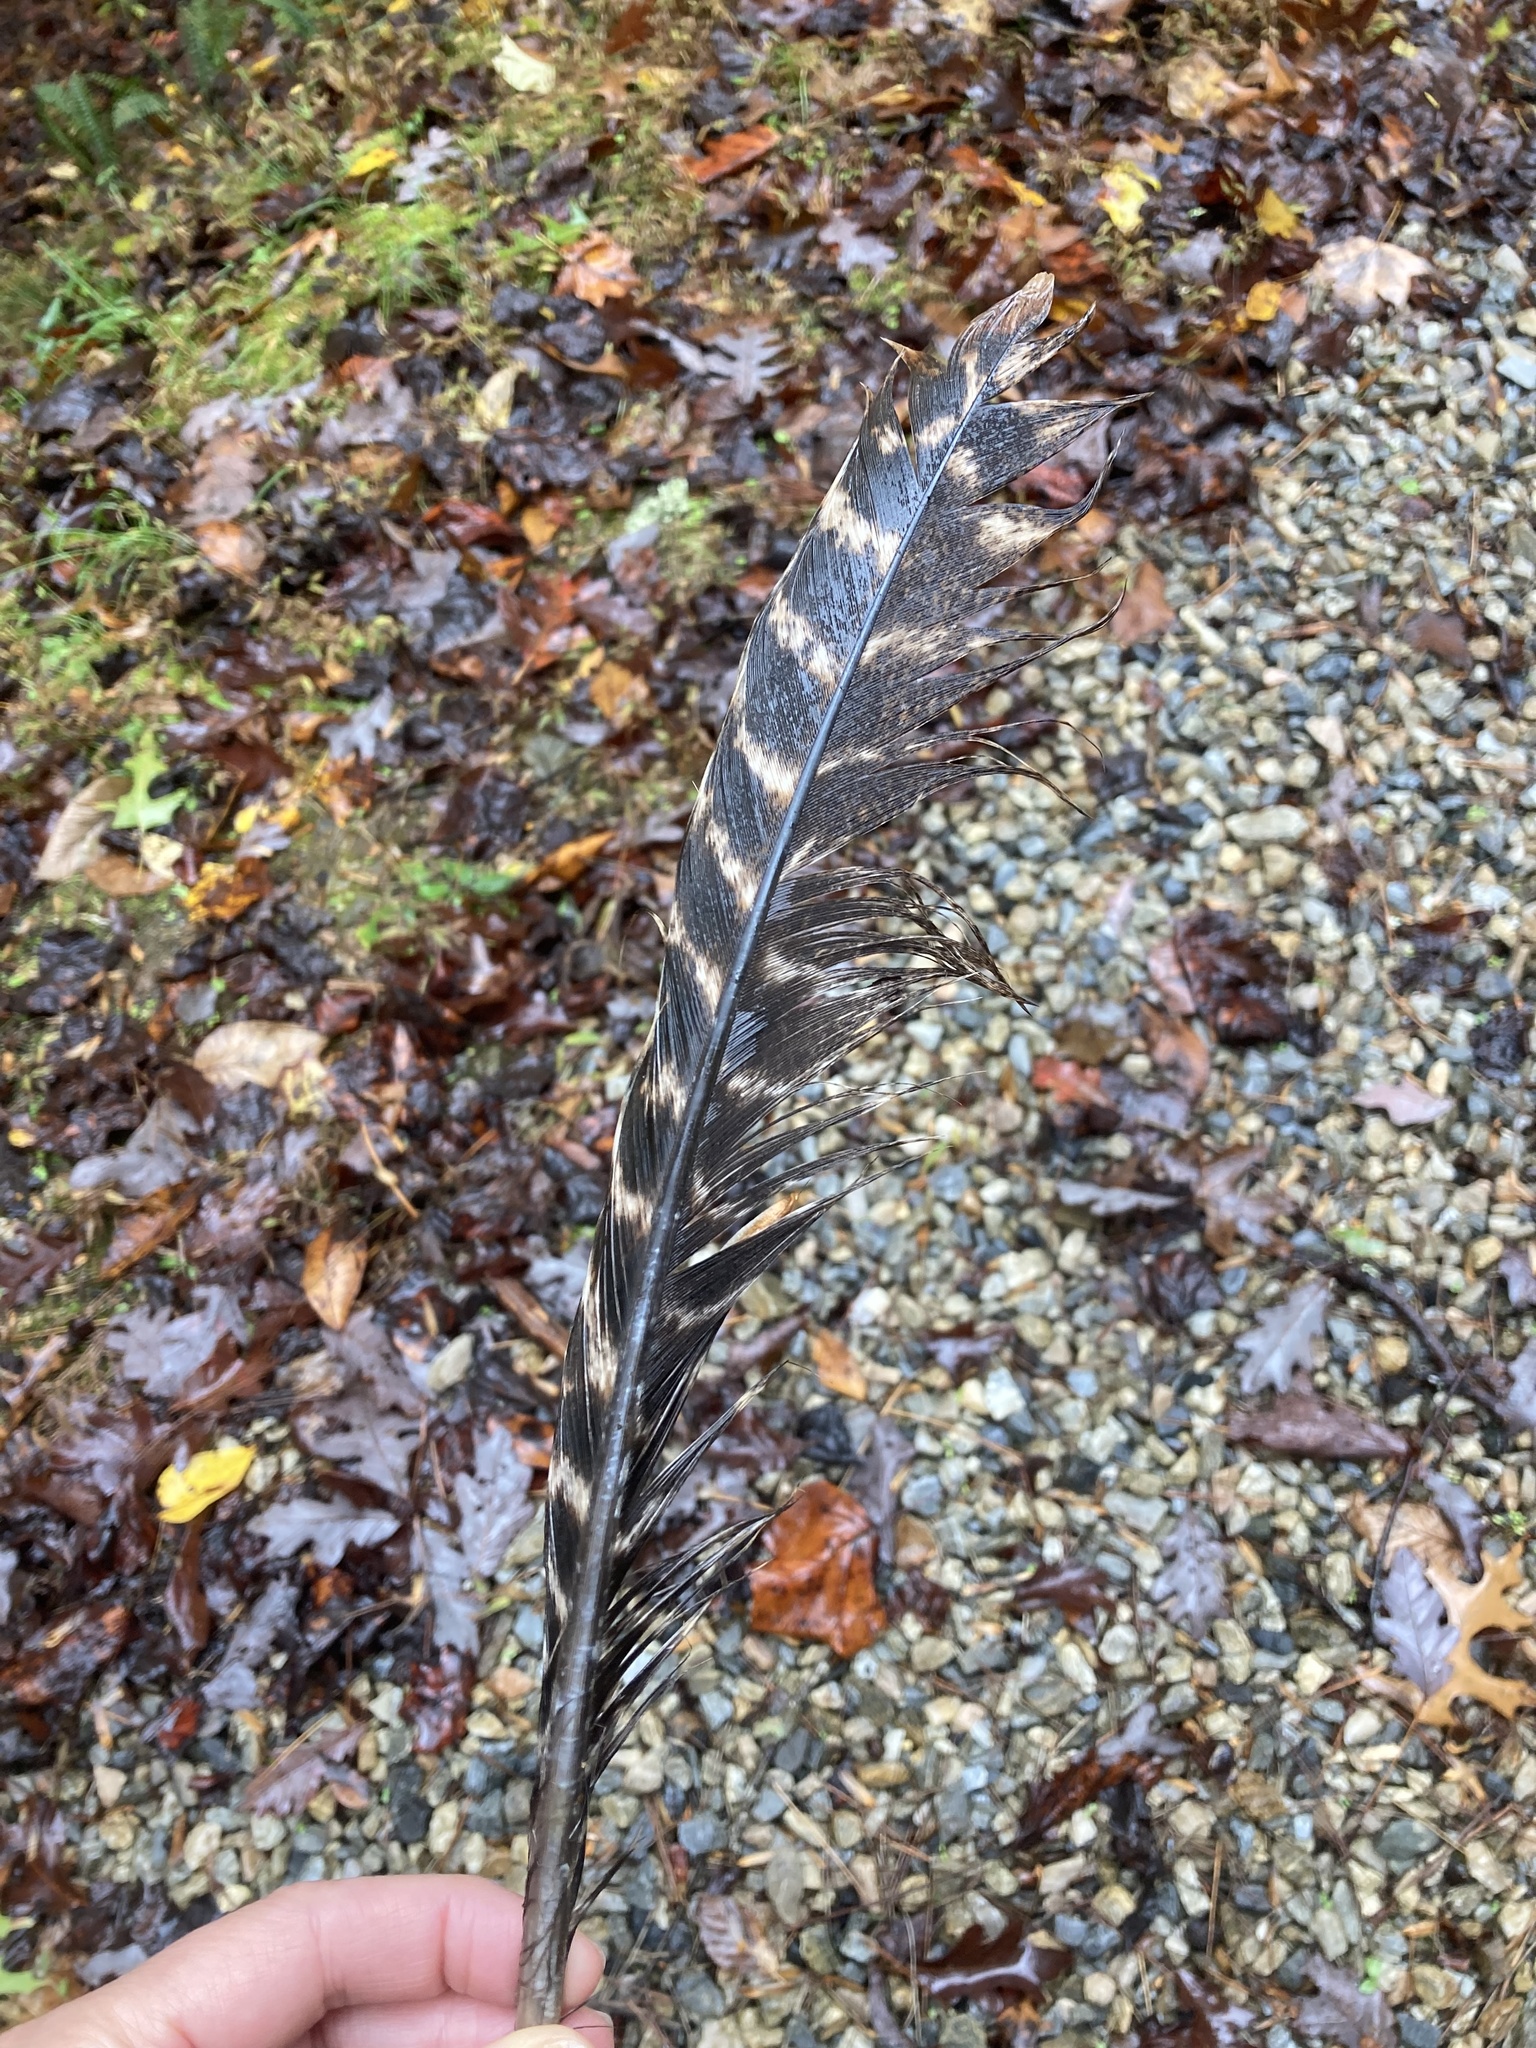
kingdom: Animalia
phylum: Chordata
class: Aves
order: Galliformes
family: Phasianidae
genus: Meleagris
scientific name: Meleagris gallopavo
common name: Wild turkey
